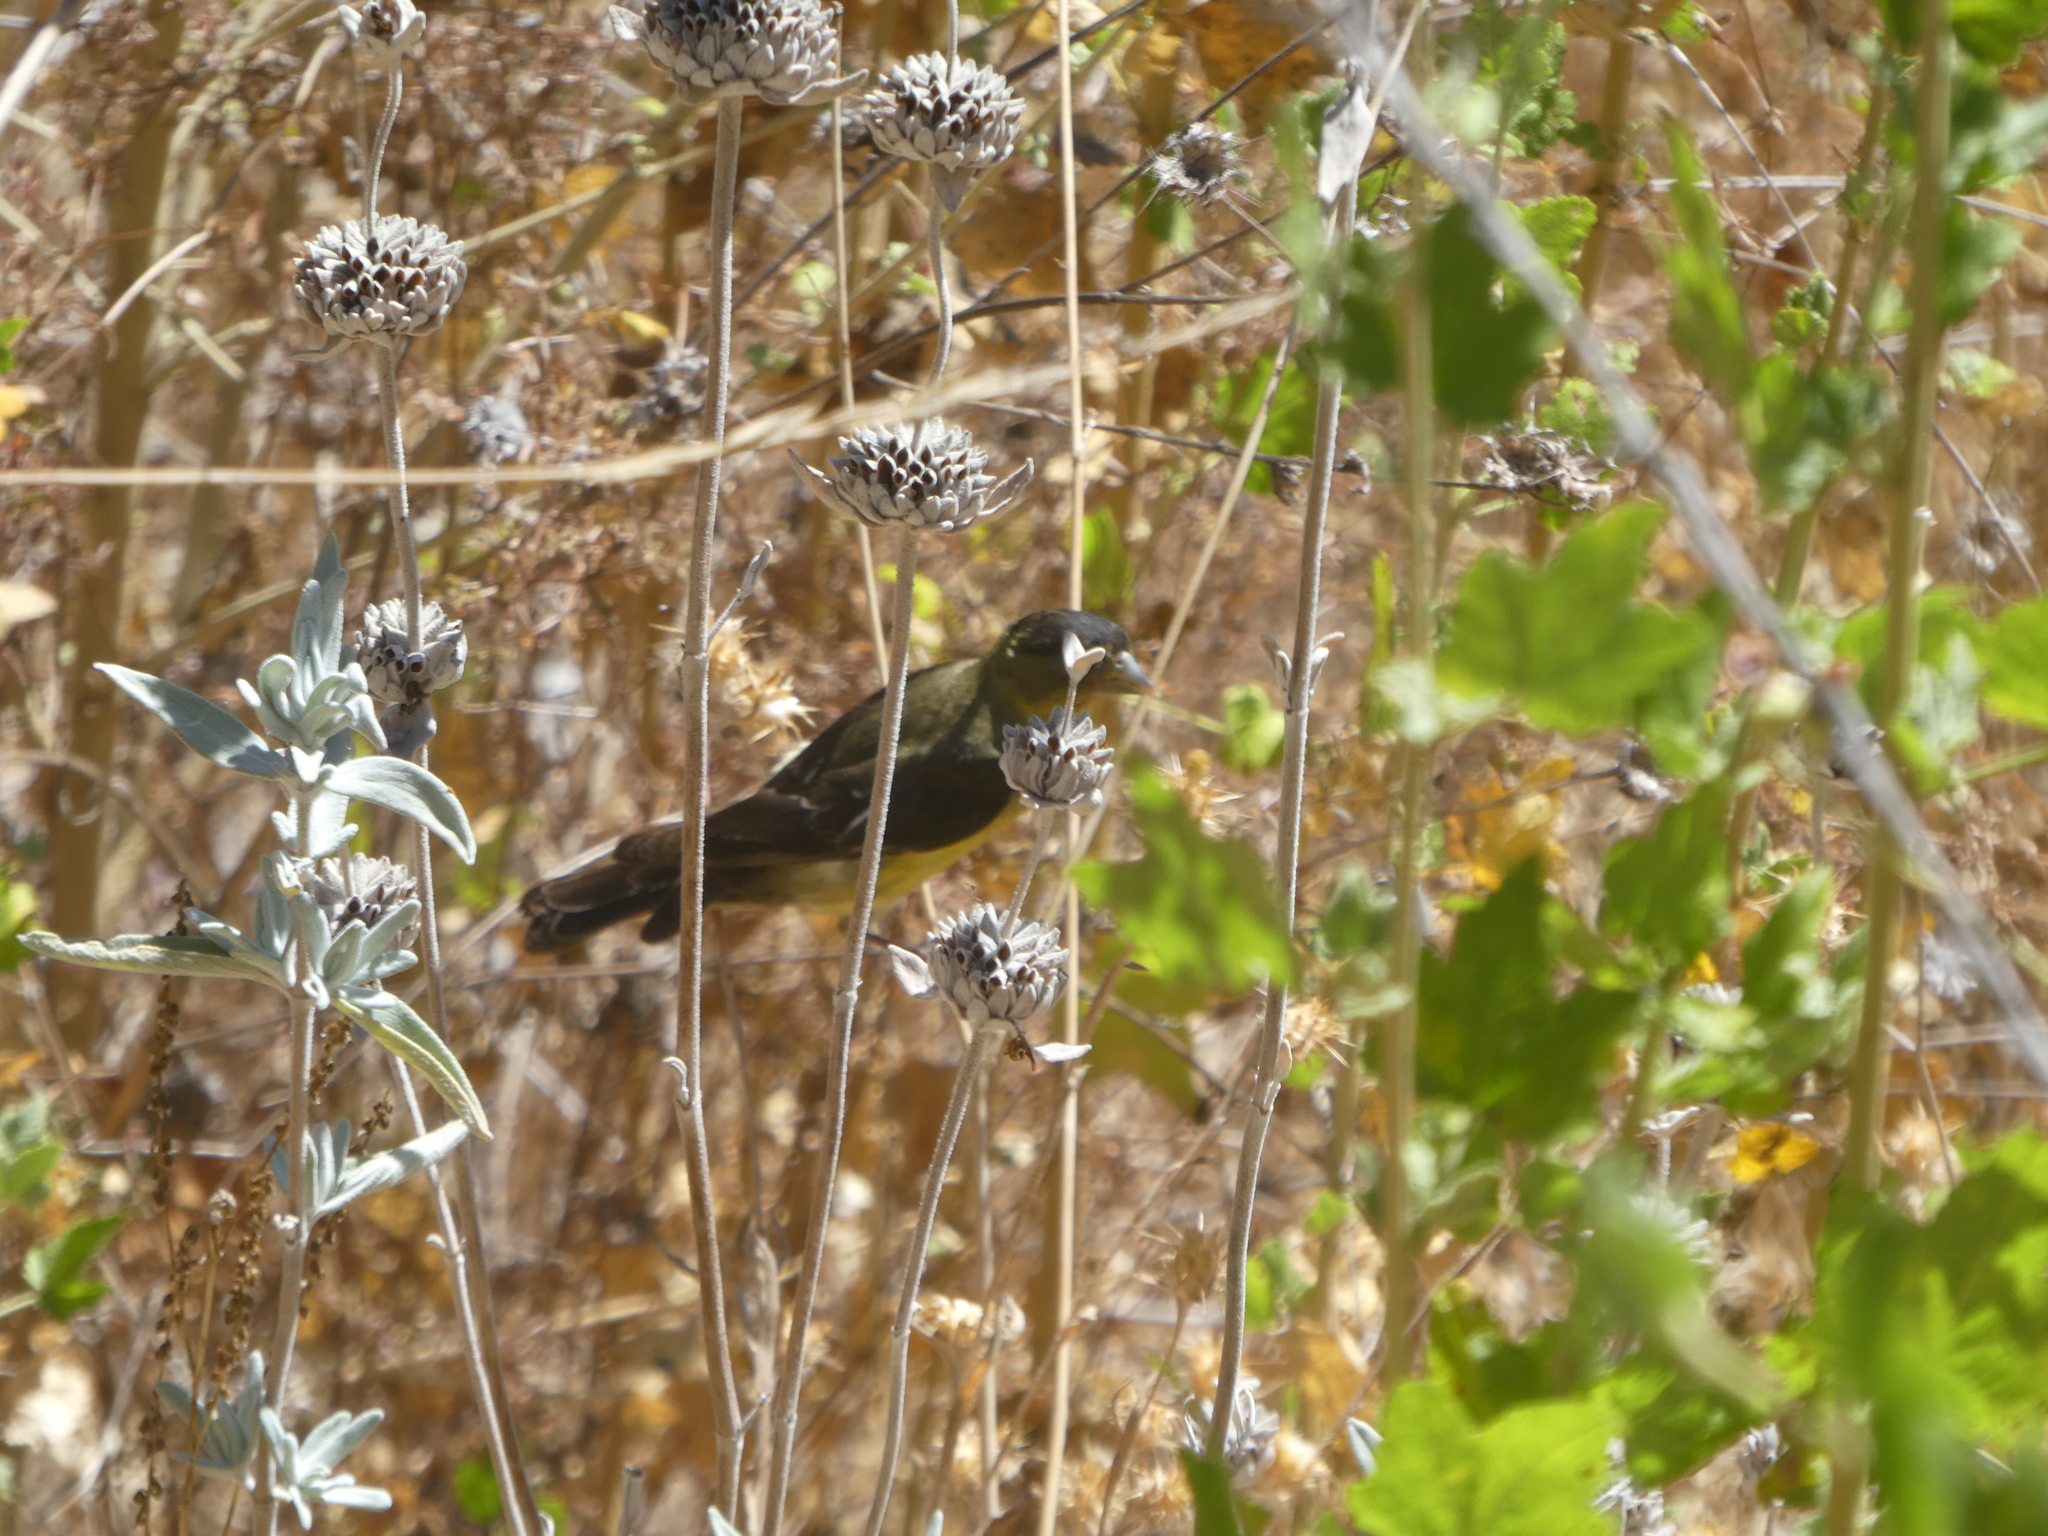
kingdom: Animalia
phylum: Chordata
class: Aves
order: Passeriformes
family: Fringillidae
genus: Spinus
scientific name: Spinus psaltria
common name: Lesser goldfinch
